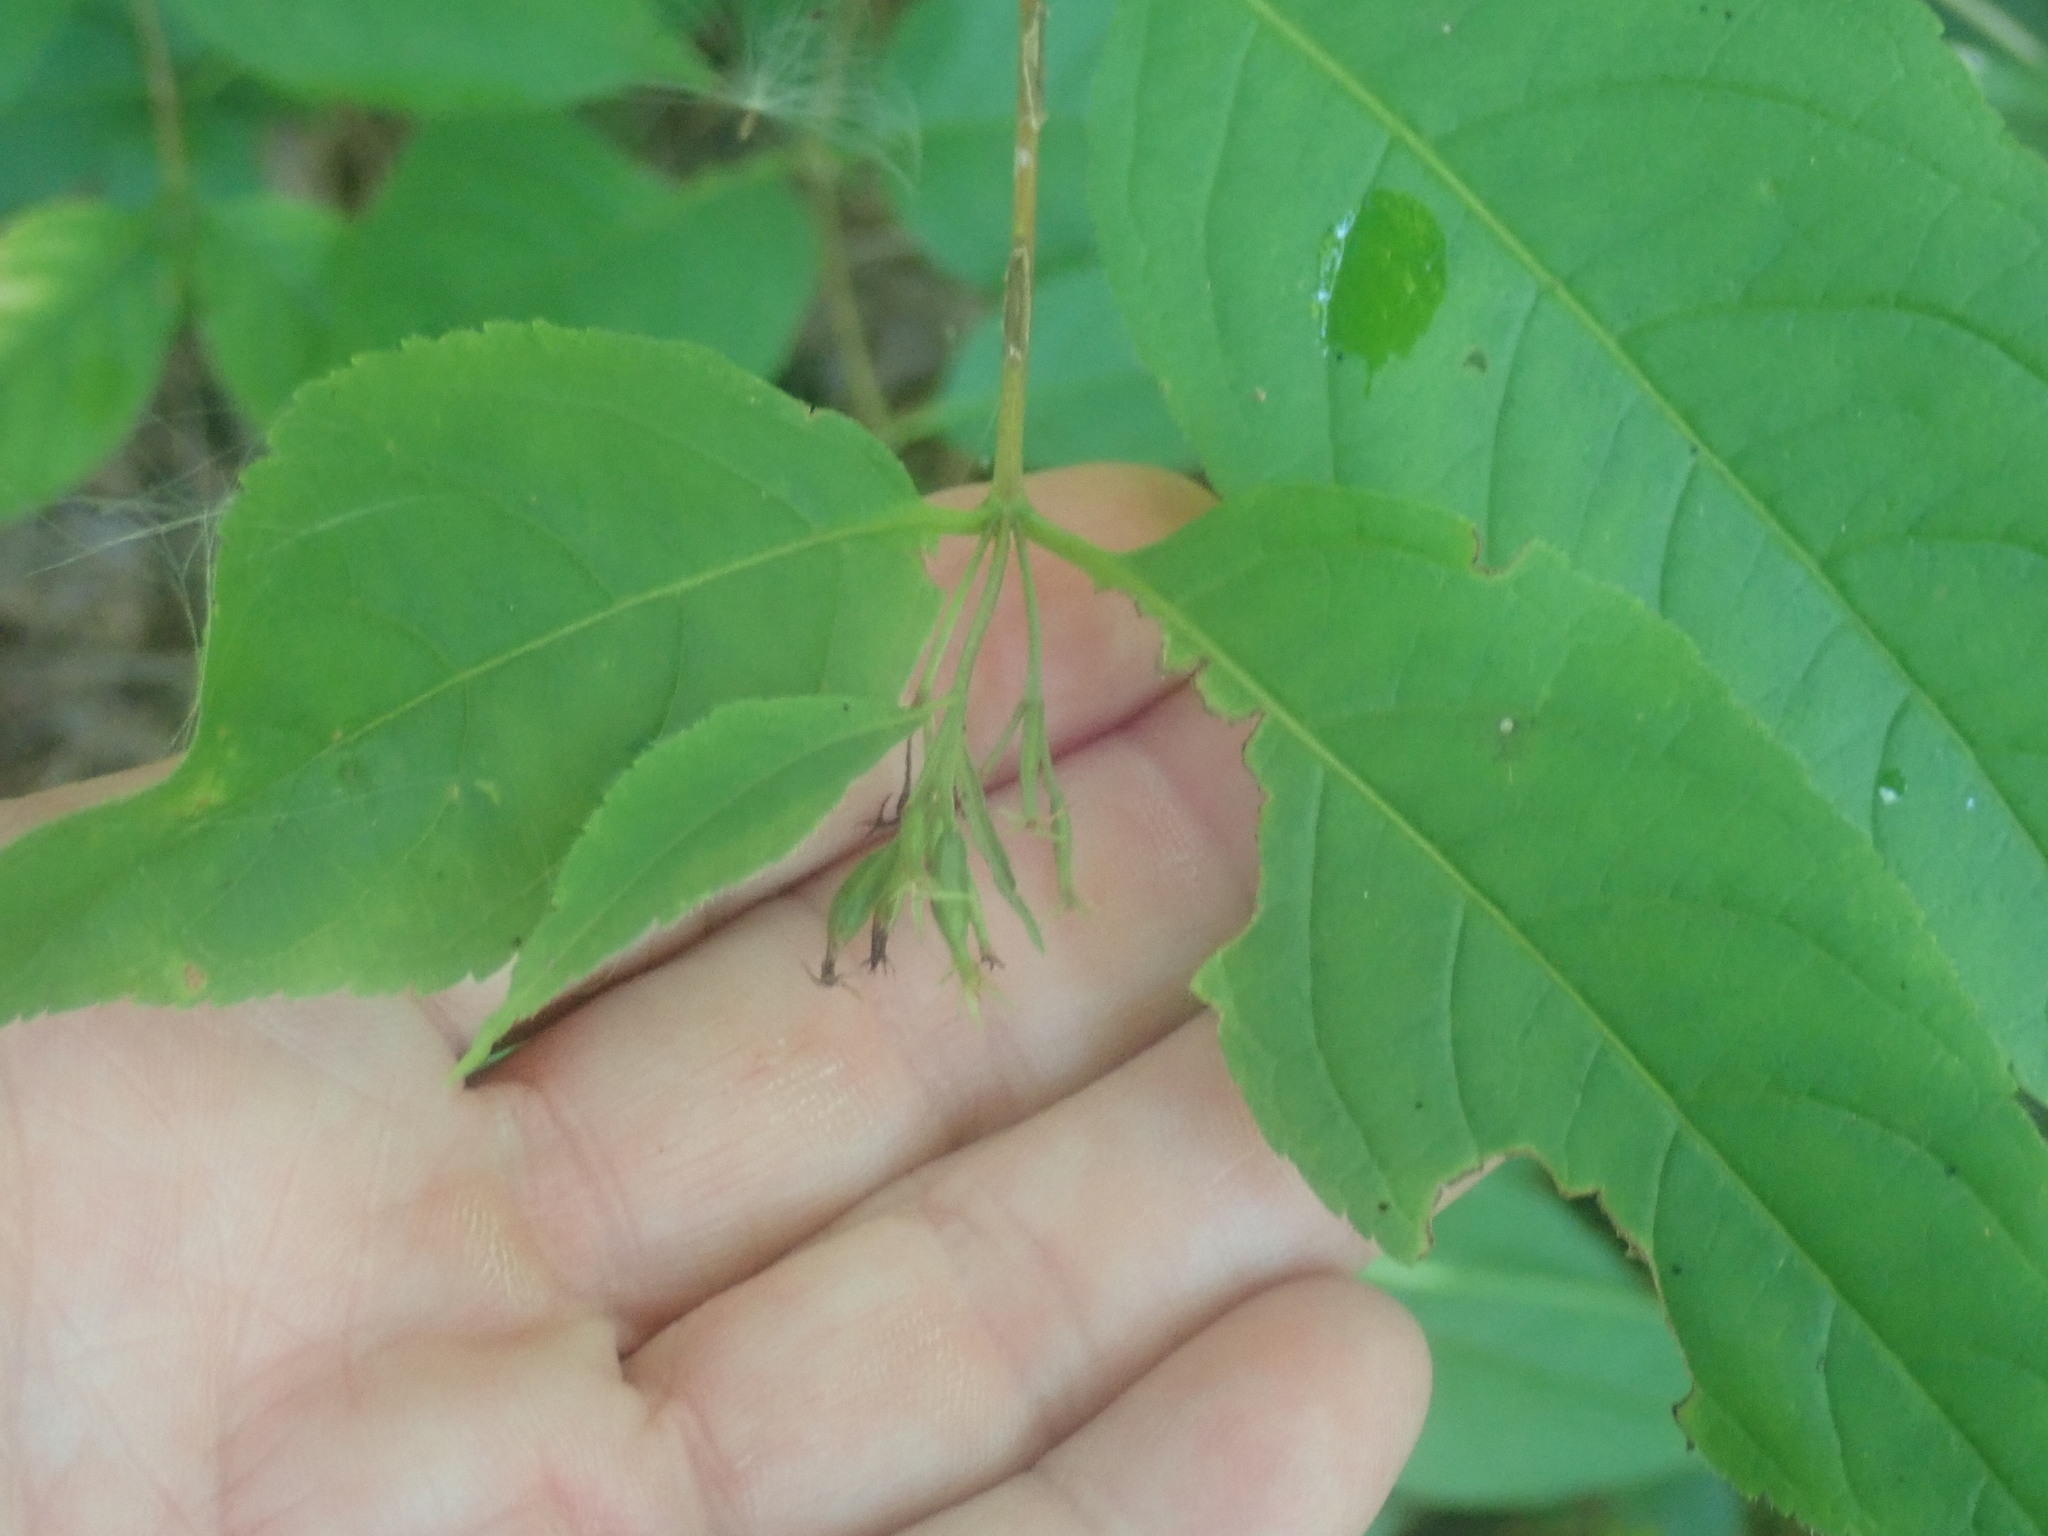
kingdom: Plantae
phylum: Tracheophyta
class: Magnoliopsida
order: Dipsacales
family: Caprifoliaceae
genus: Diervilla
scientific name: Diervilla lonicera
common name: Bush-honeysuckle
